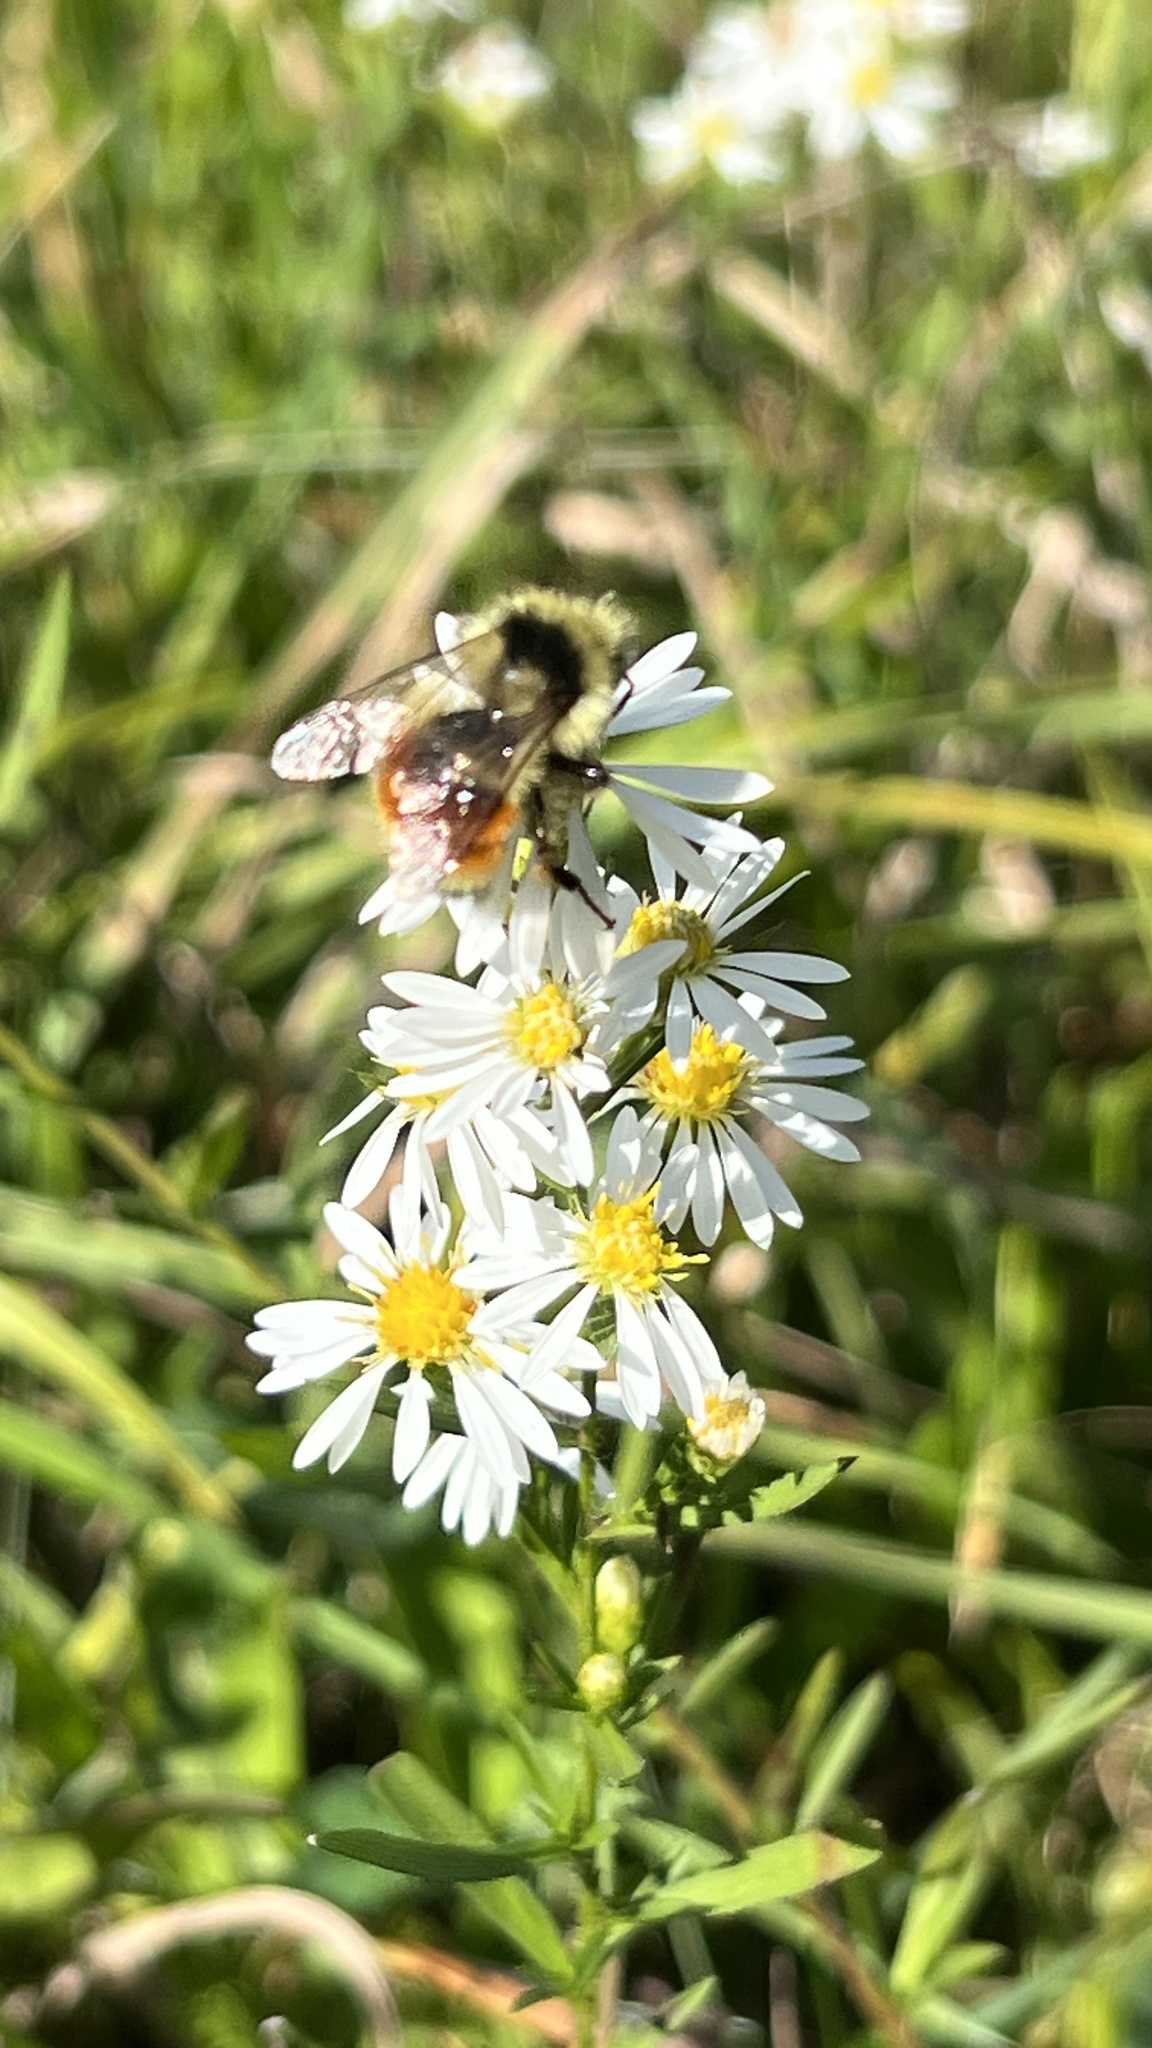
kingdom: Animalia
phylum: Arthropoda
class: Insecta
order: Hymenoptera
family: Apidae
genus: Bombus
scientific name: Bombus ternarius
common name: Tri-colored bumble bee
